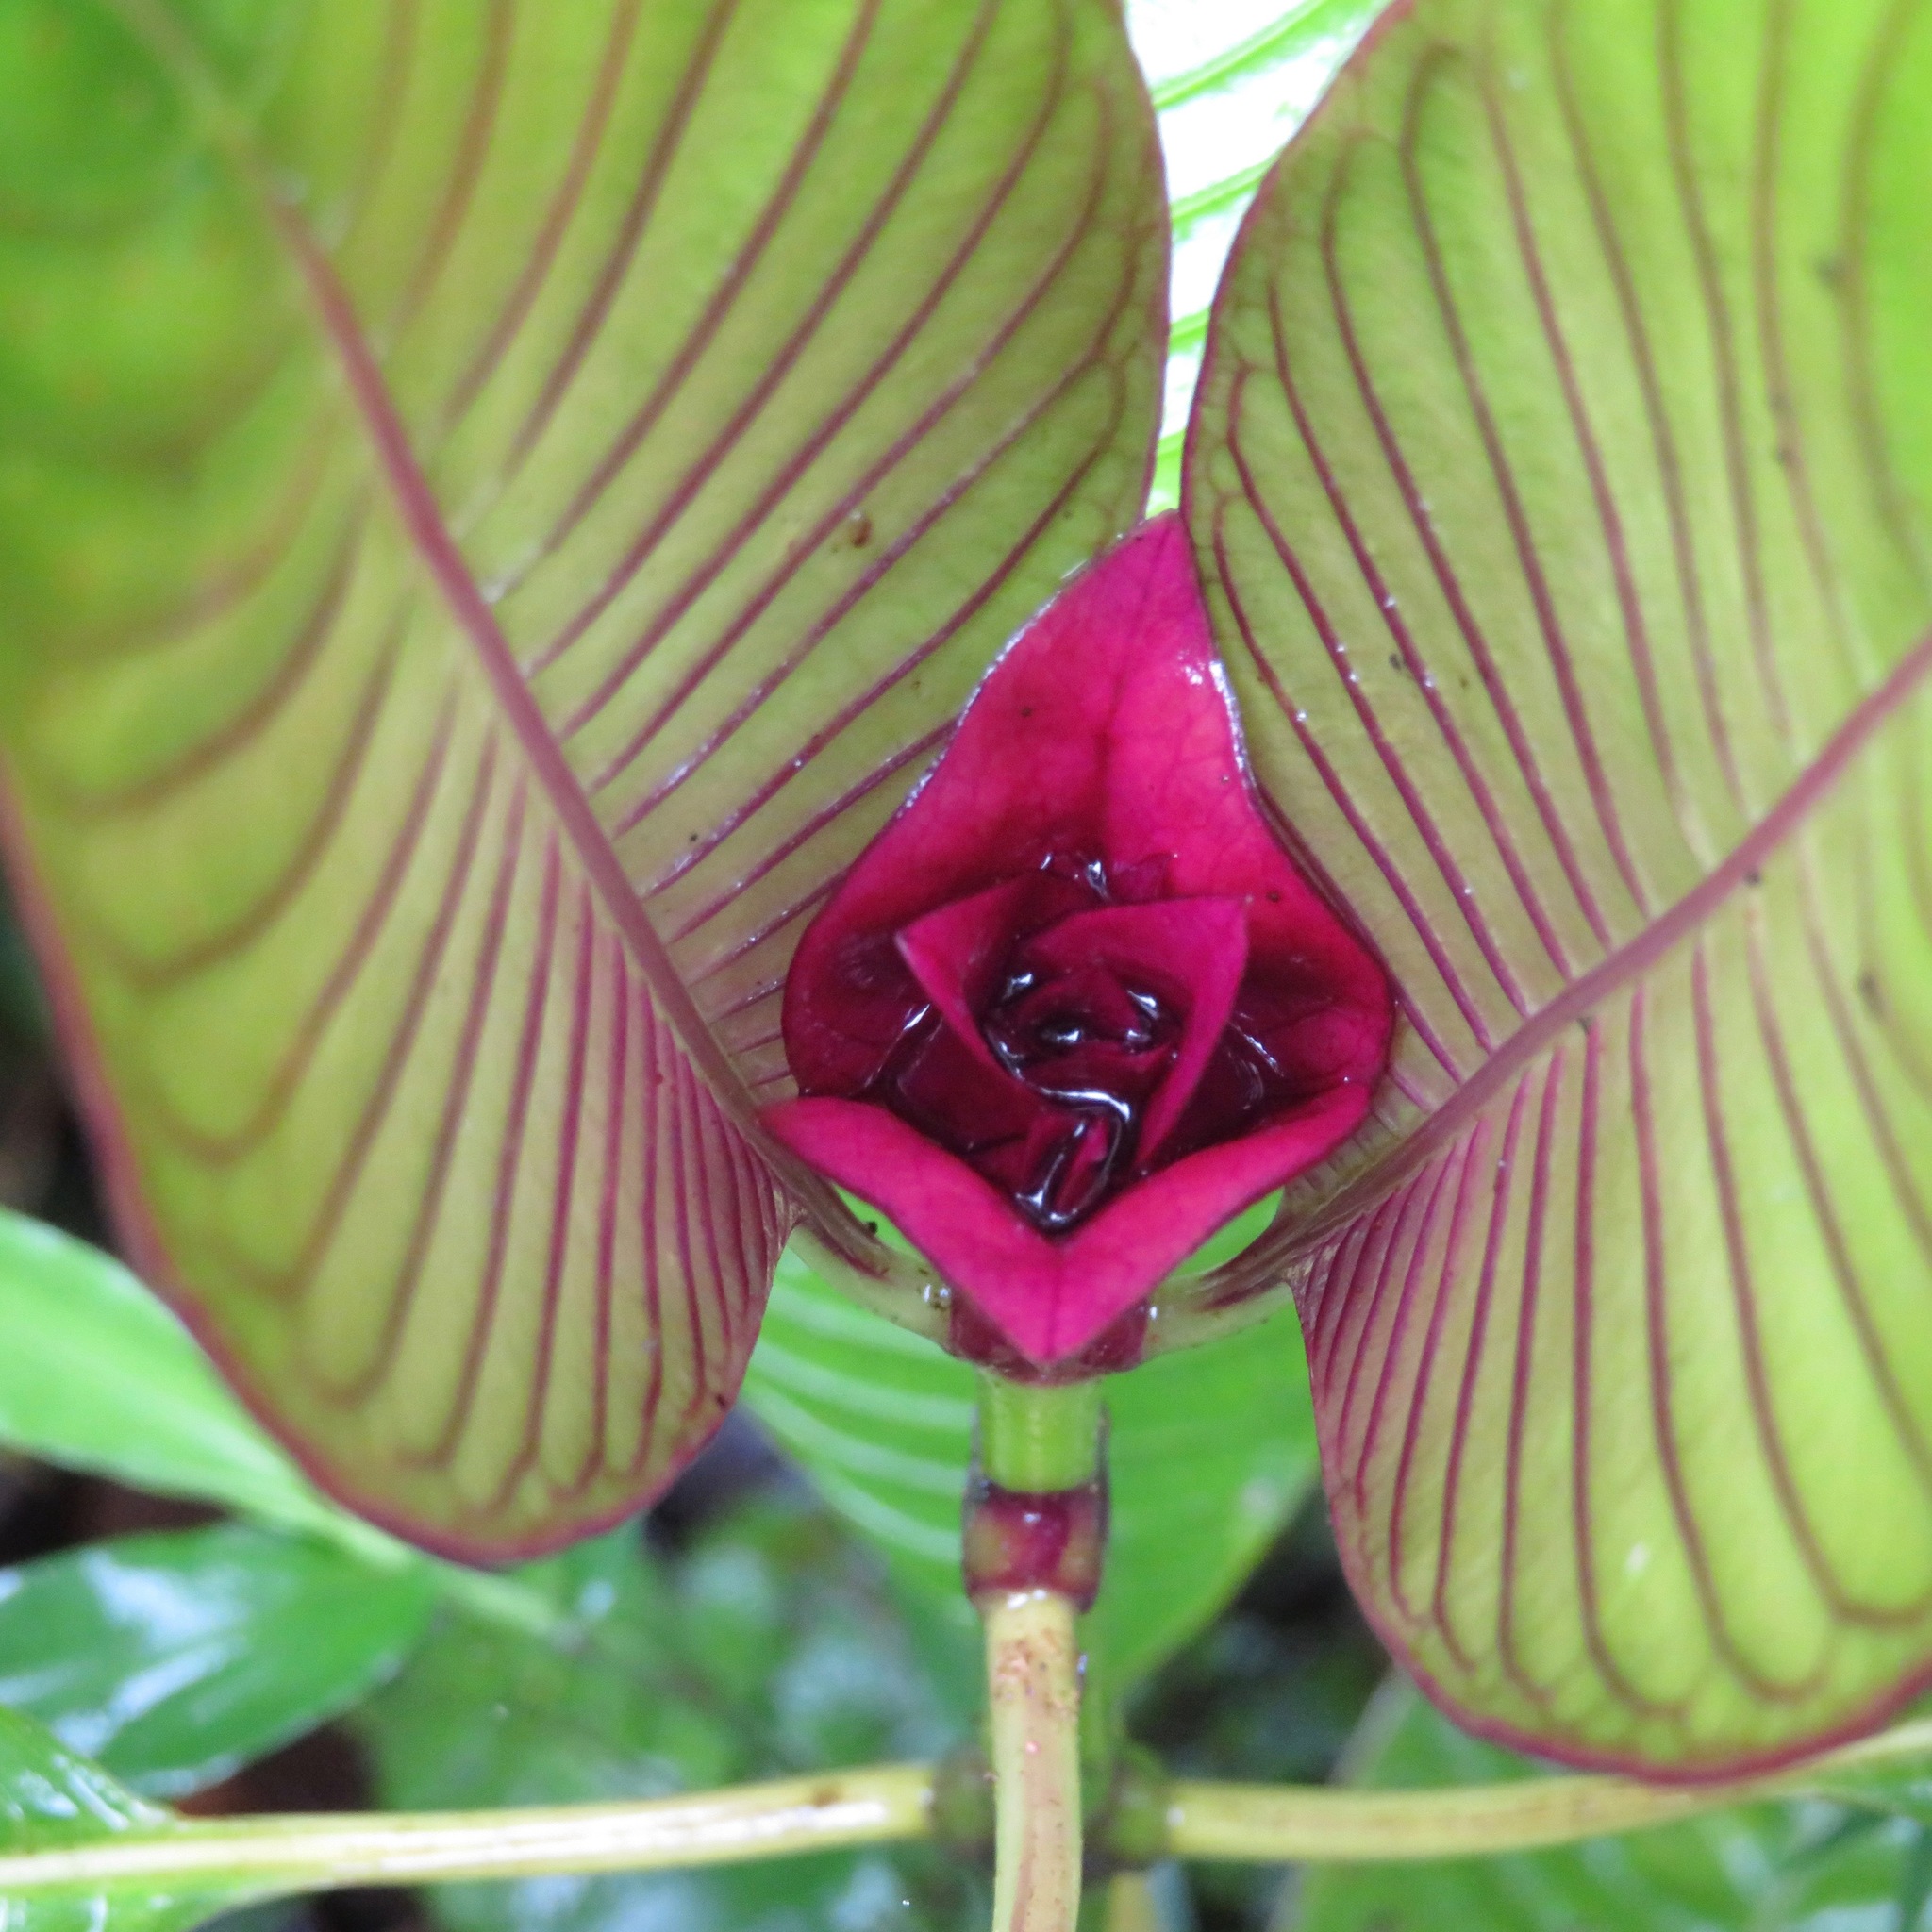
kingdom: Plantae
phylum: Tracheophyta
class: Magnoliopsida
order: Gentianales
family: Rubiaceae
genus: Palicourea
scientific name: Palicourea chiriquiensis
